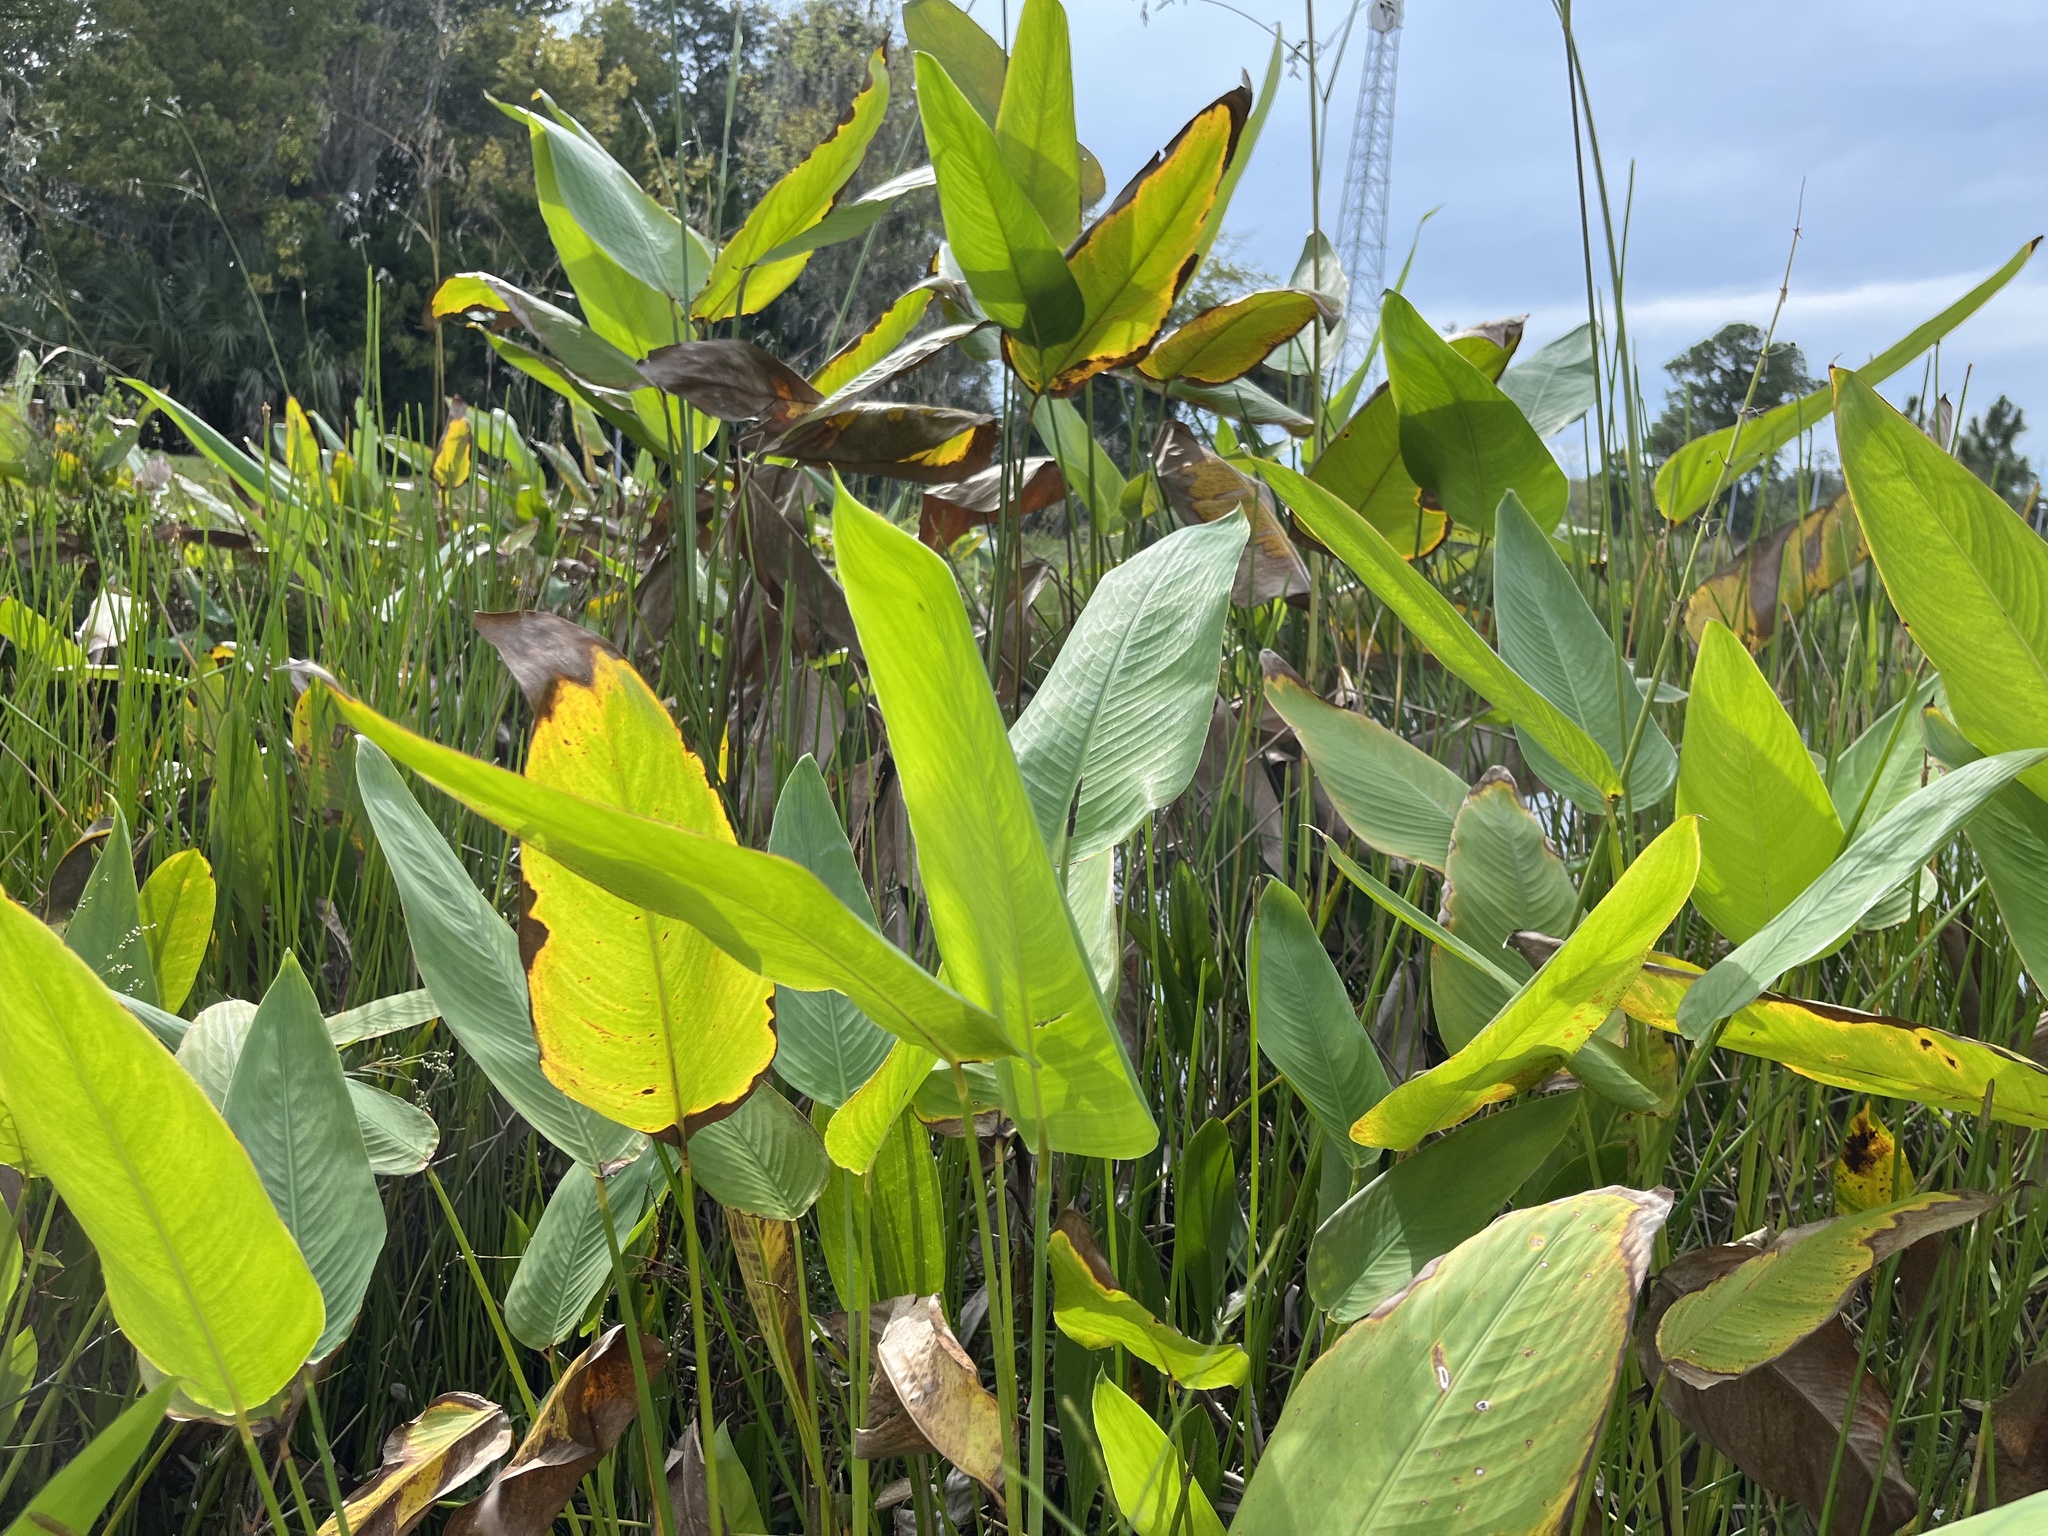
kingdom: Plantae
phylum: Tracheophyta
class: Liliopsida
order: Zingiberales
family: Marantaceae
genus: Thalia
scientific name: Thalia geniculata
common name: Arrowroot
